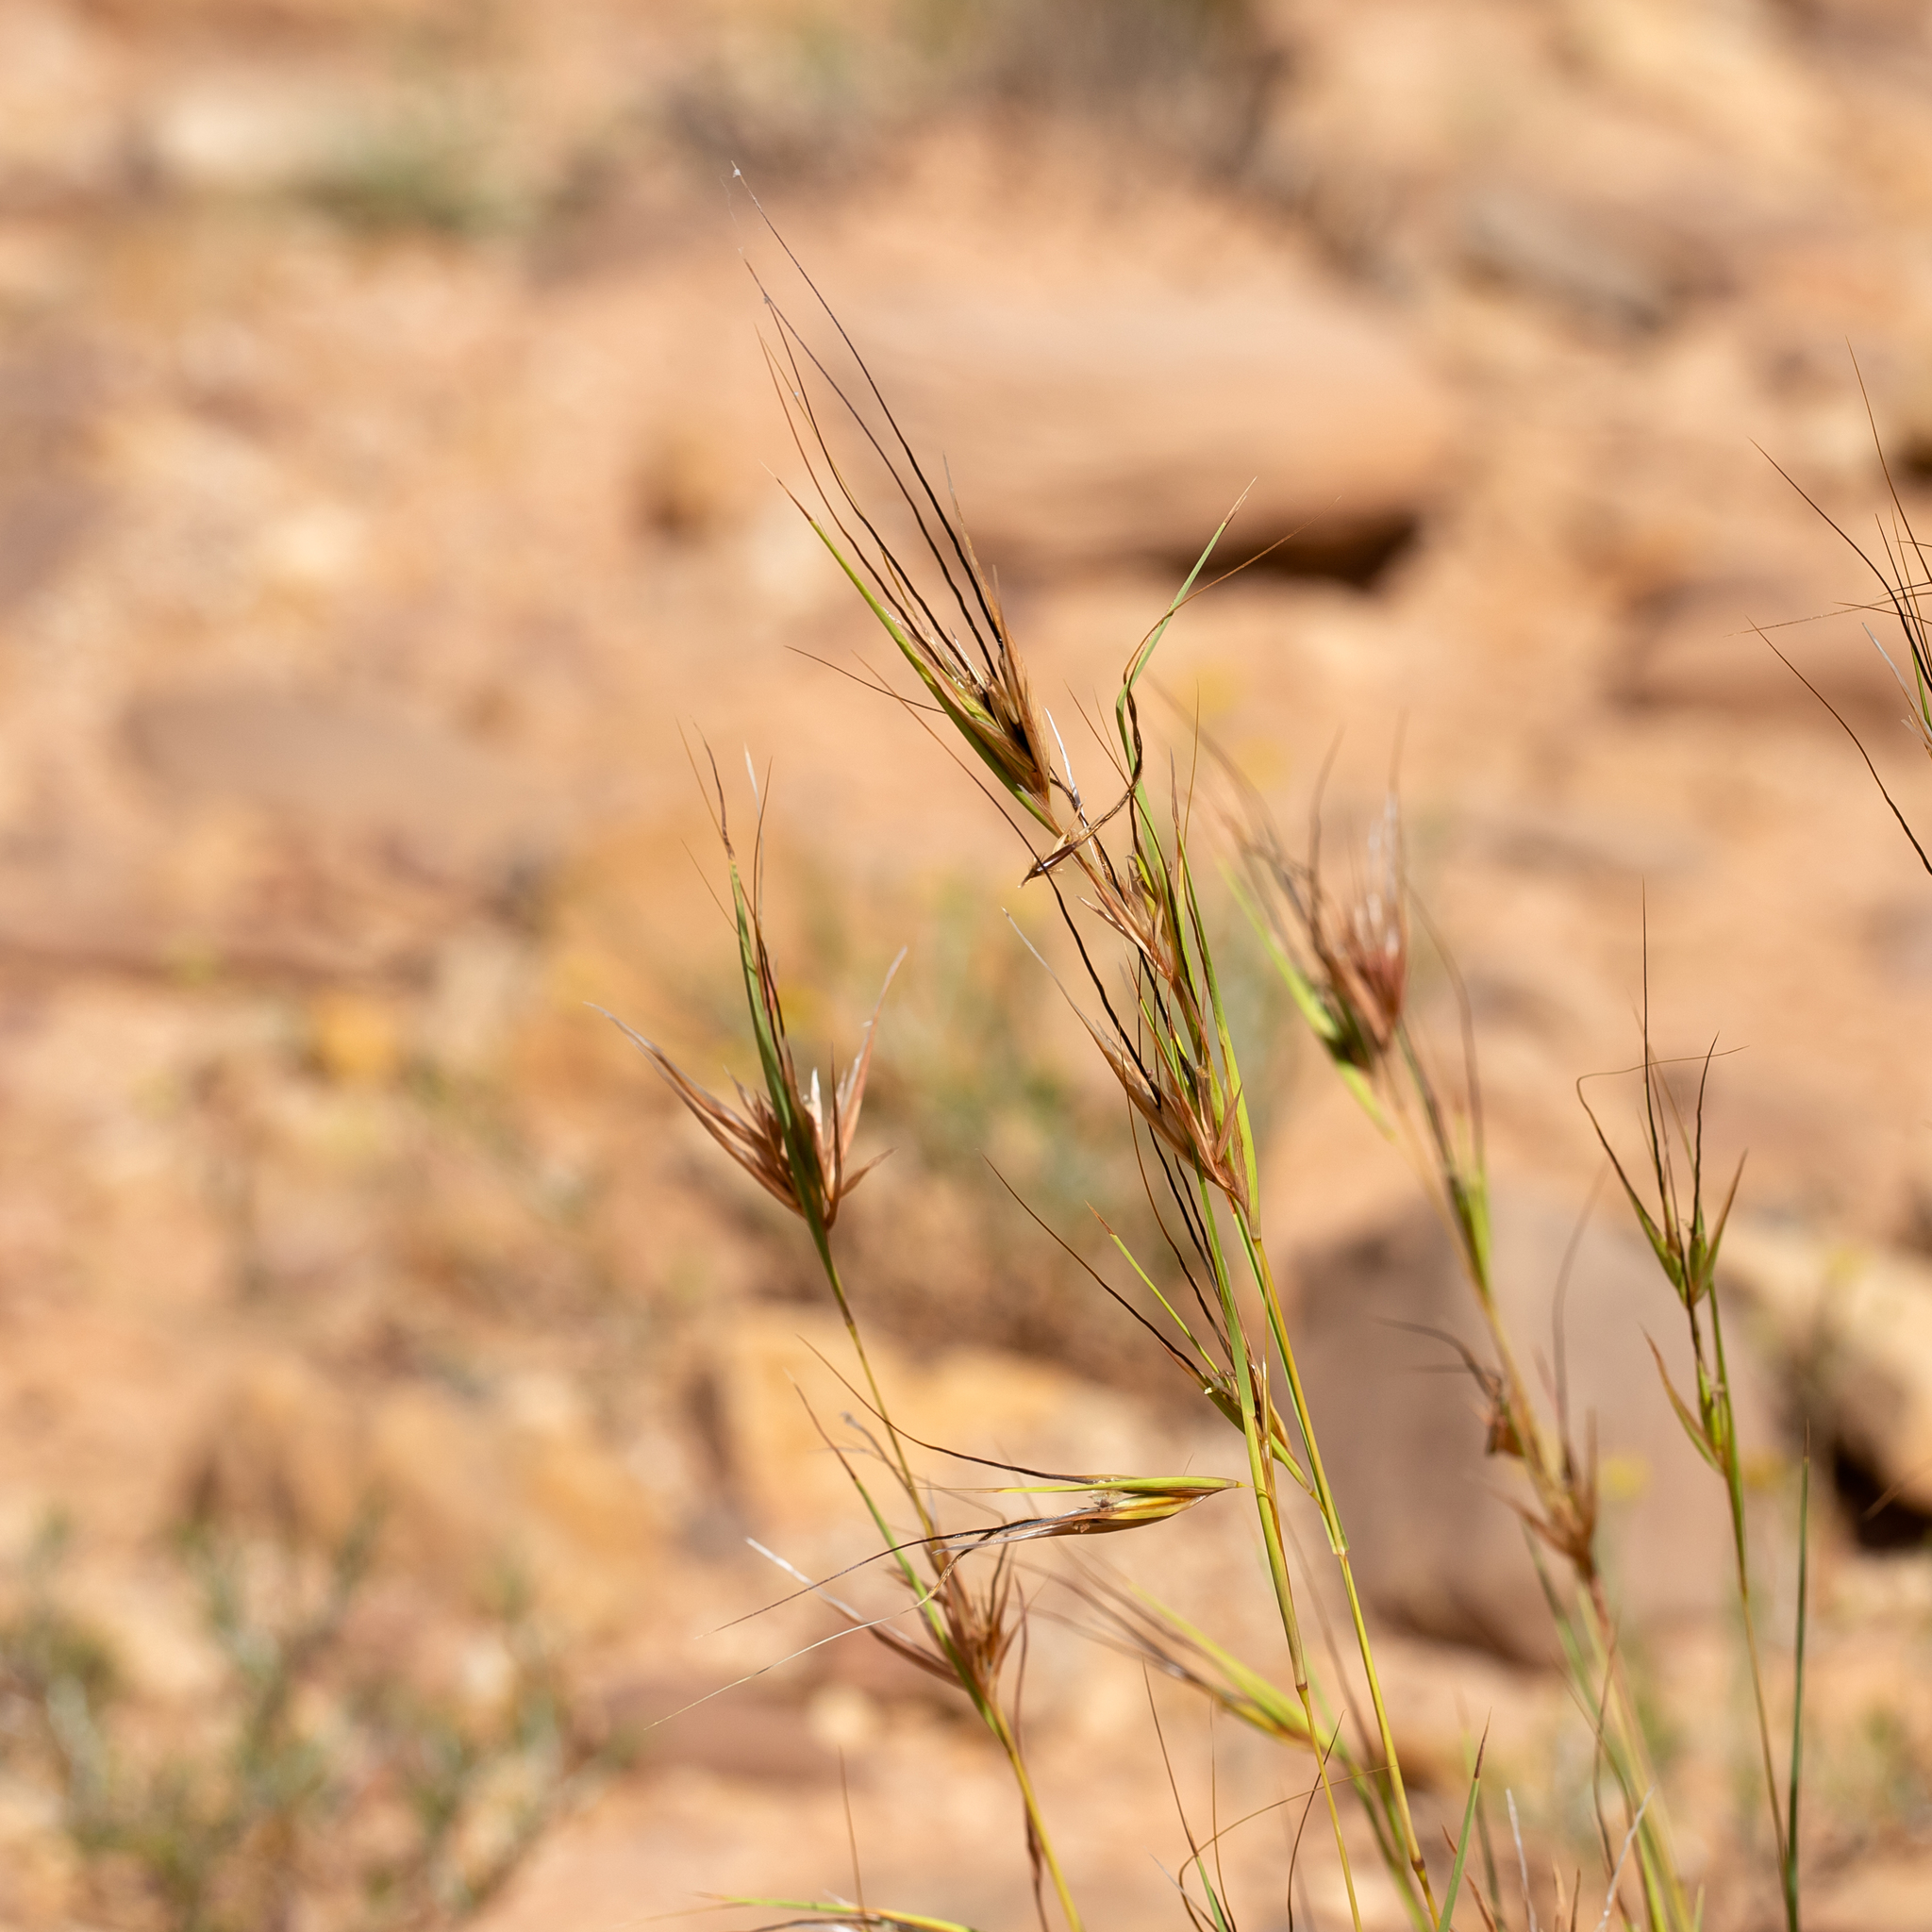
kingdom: Plantae
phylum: Tracheophyta
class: Liliopsida
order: Poales
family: Poaceae
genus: Themeda
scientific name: Themeda triandra
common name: Kangaroo grass
